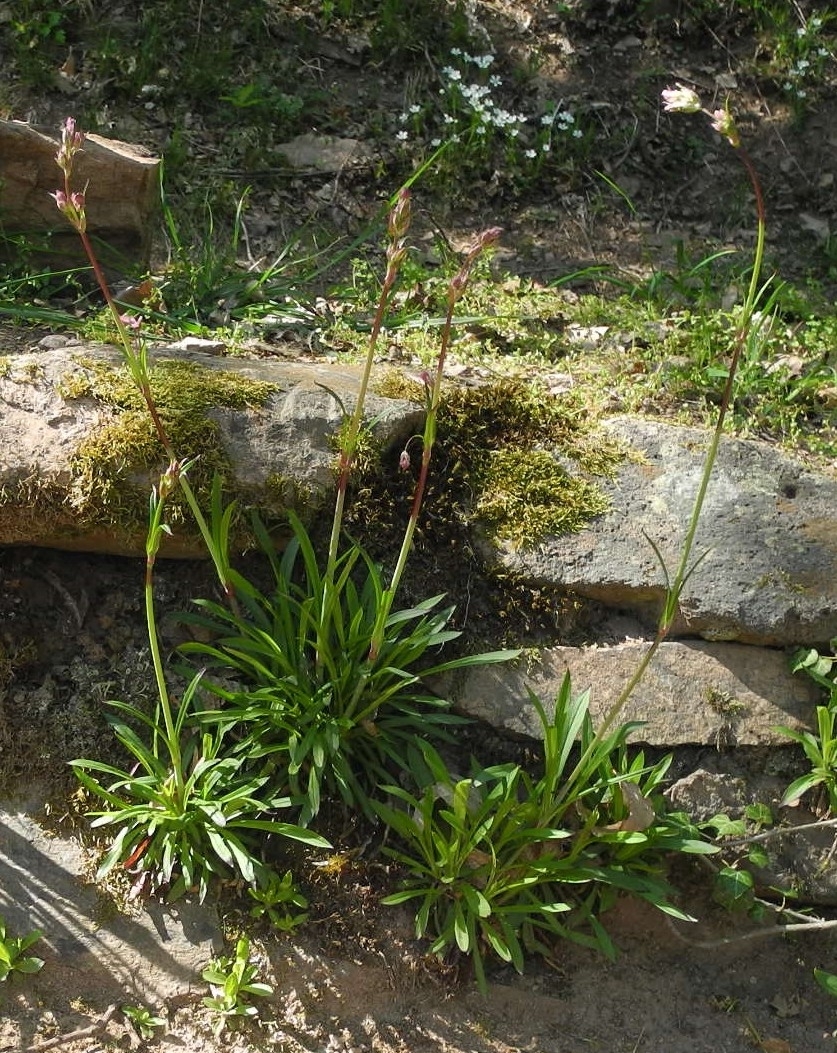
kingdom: Plantae
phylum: Tracheophyta
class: Magnoliopsida
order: Caryophyllales
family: Caryophyllaceae
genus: Viscaria
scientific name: Viscaria vulgaris
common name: Clammy campion
